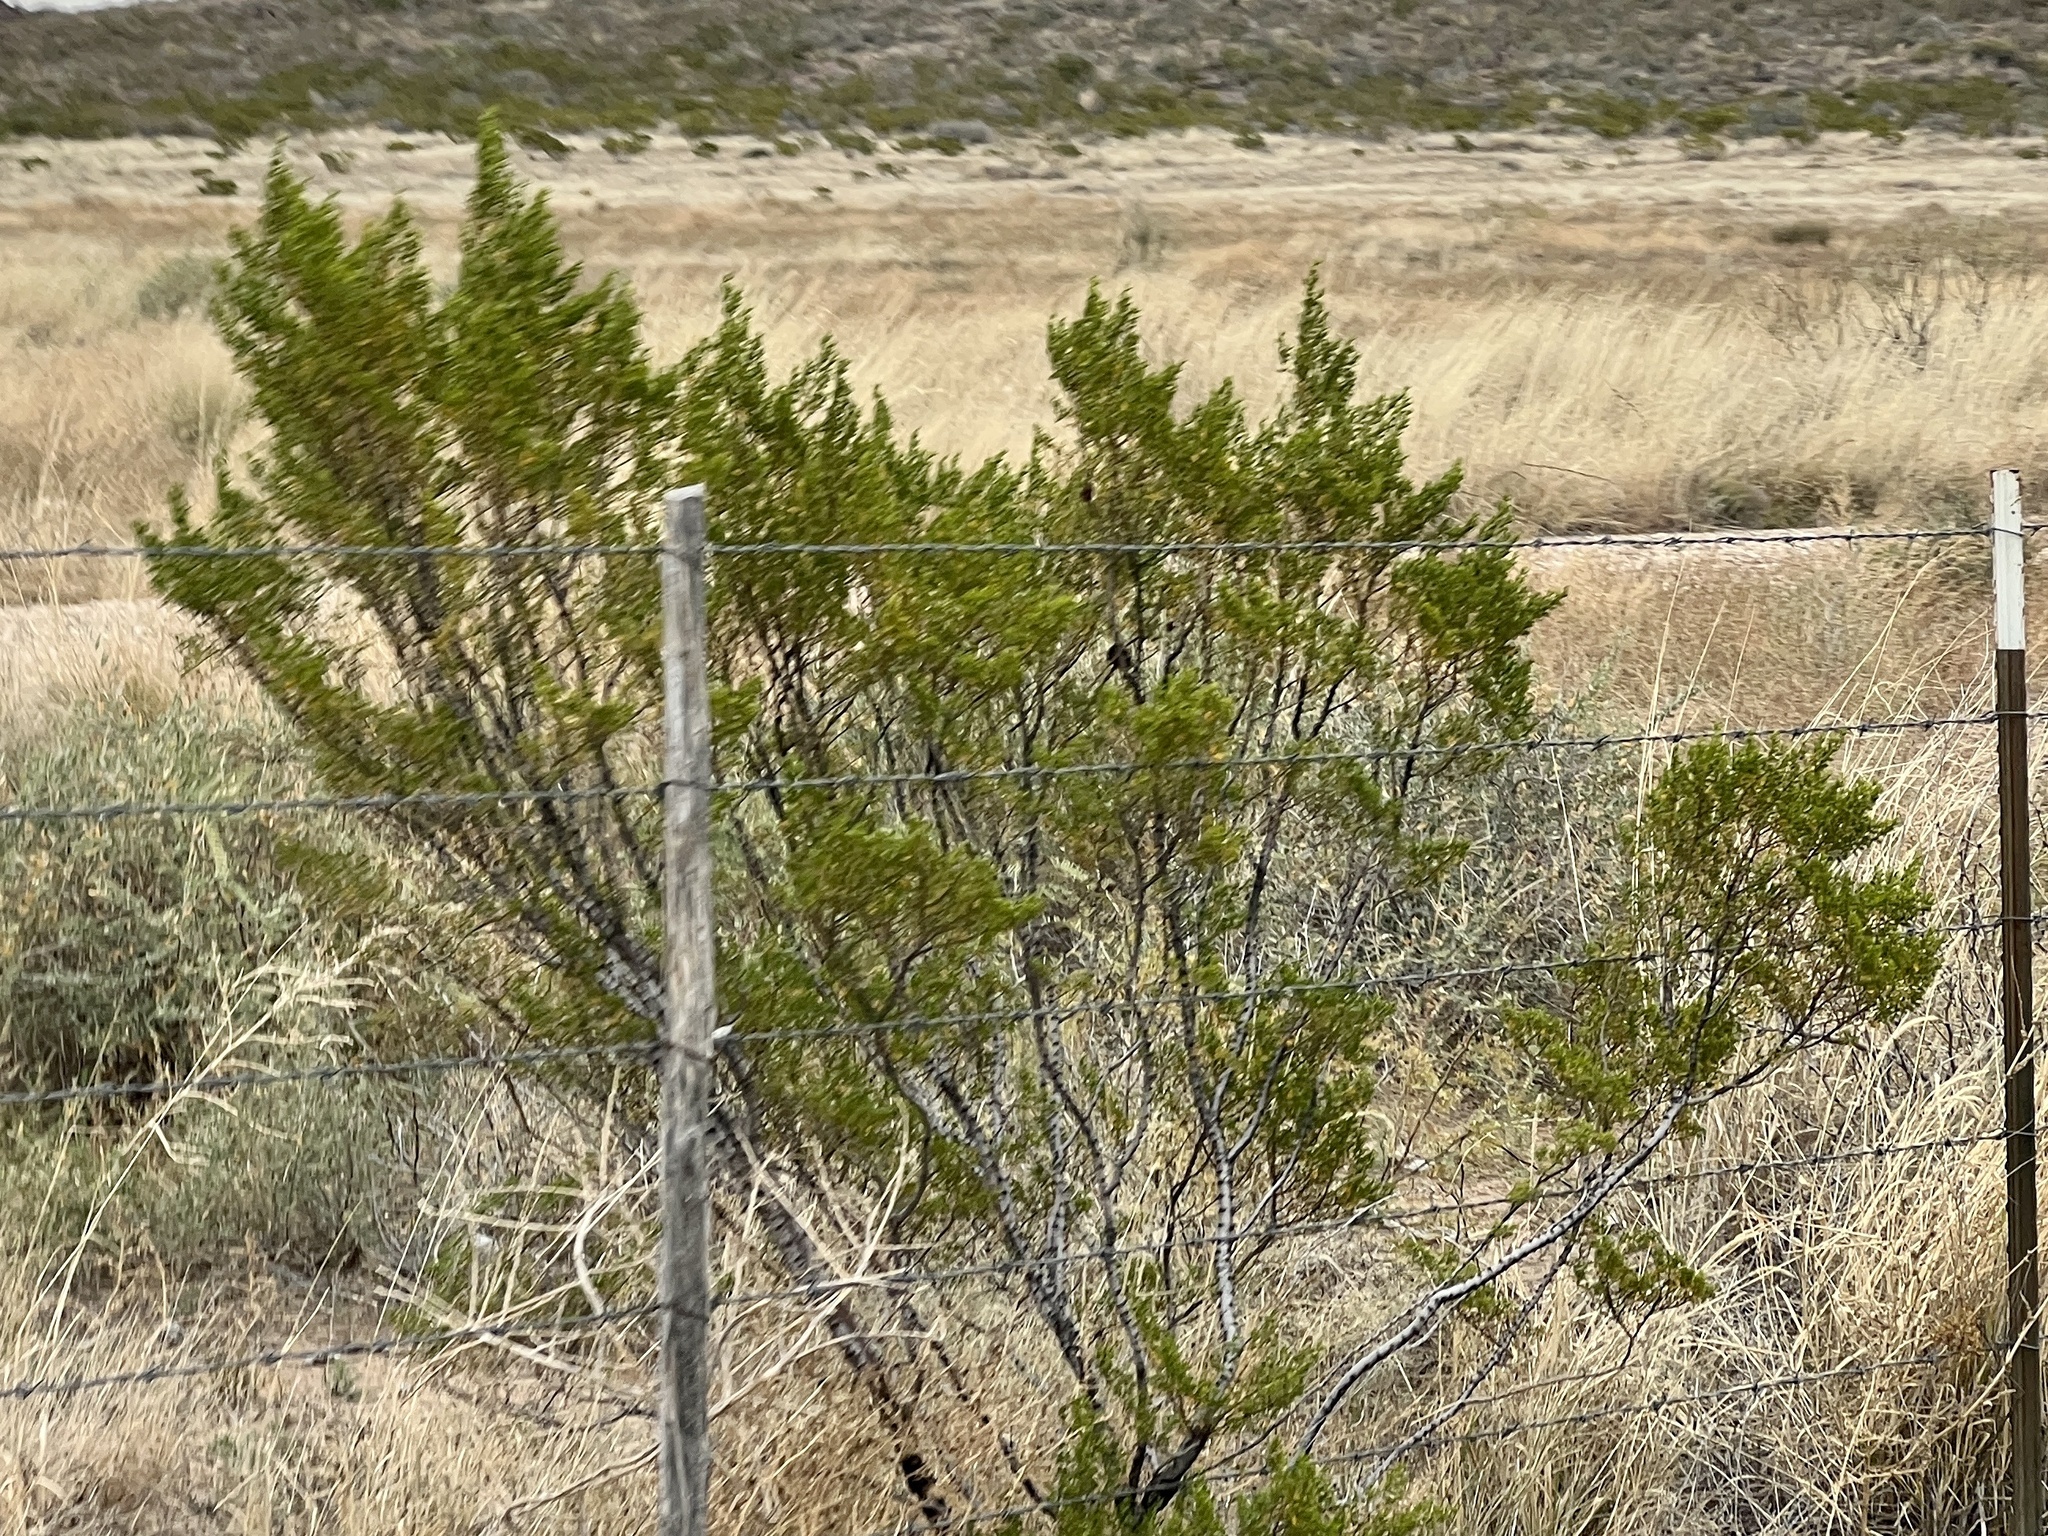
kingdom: Plantae
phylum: Tracheophyta
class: Magnoliopsida
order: Zygophyllales
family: Zygophyllaceae
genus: Larrea
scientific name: Larrea tridentata
